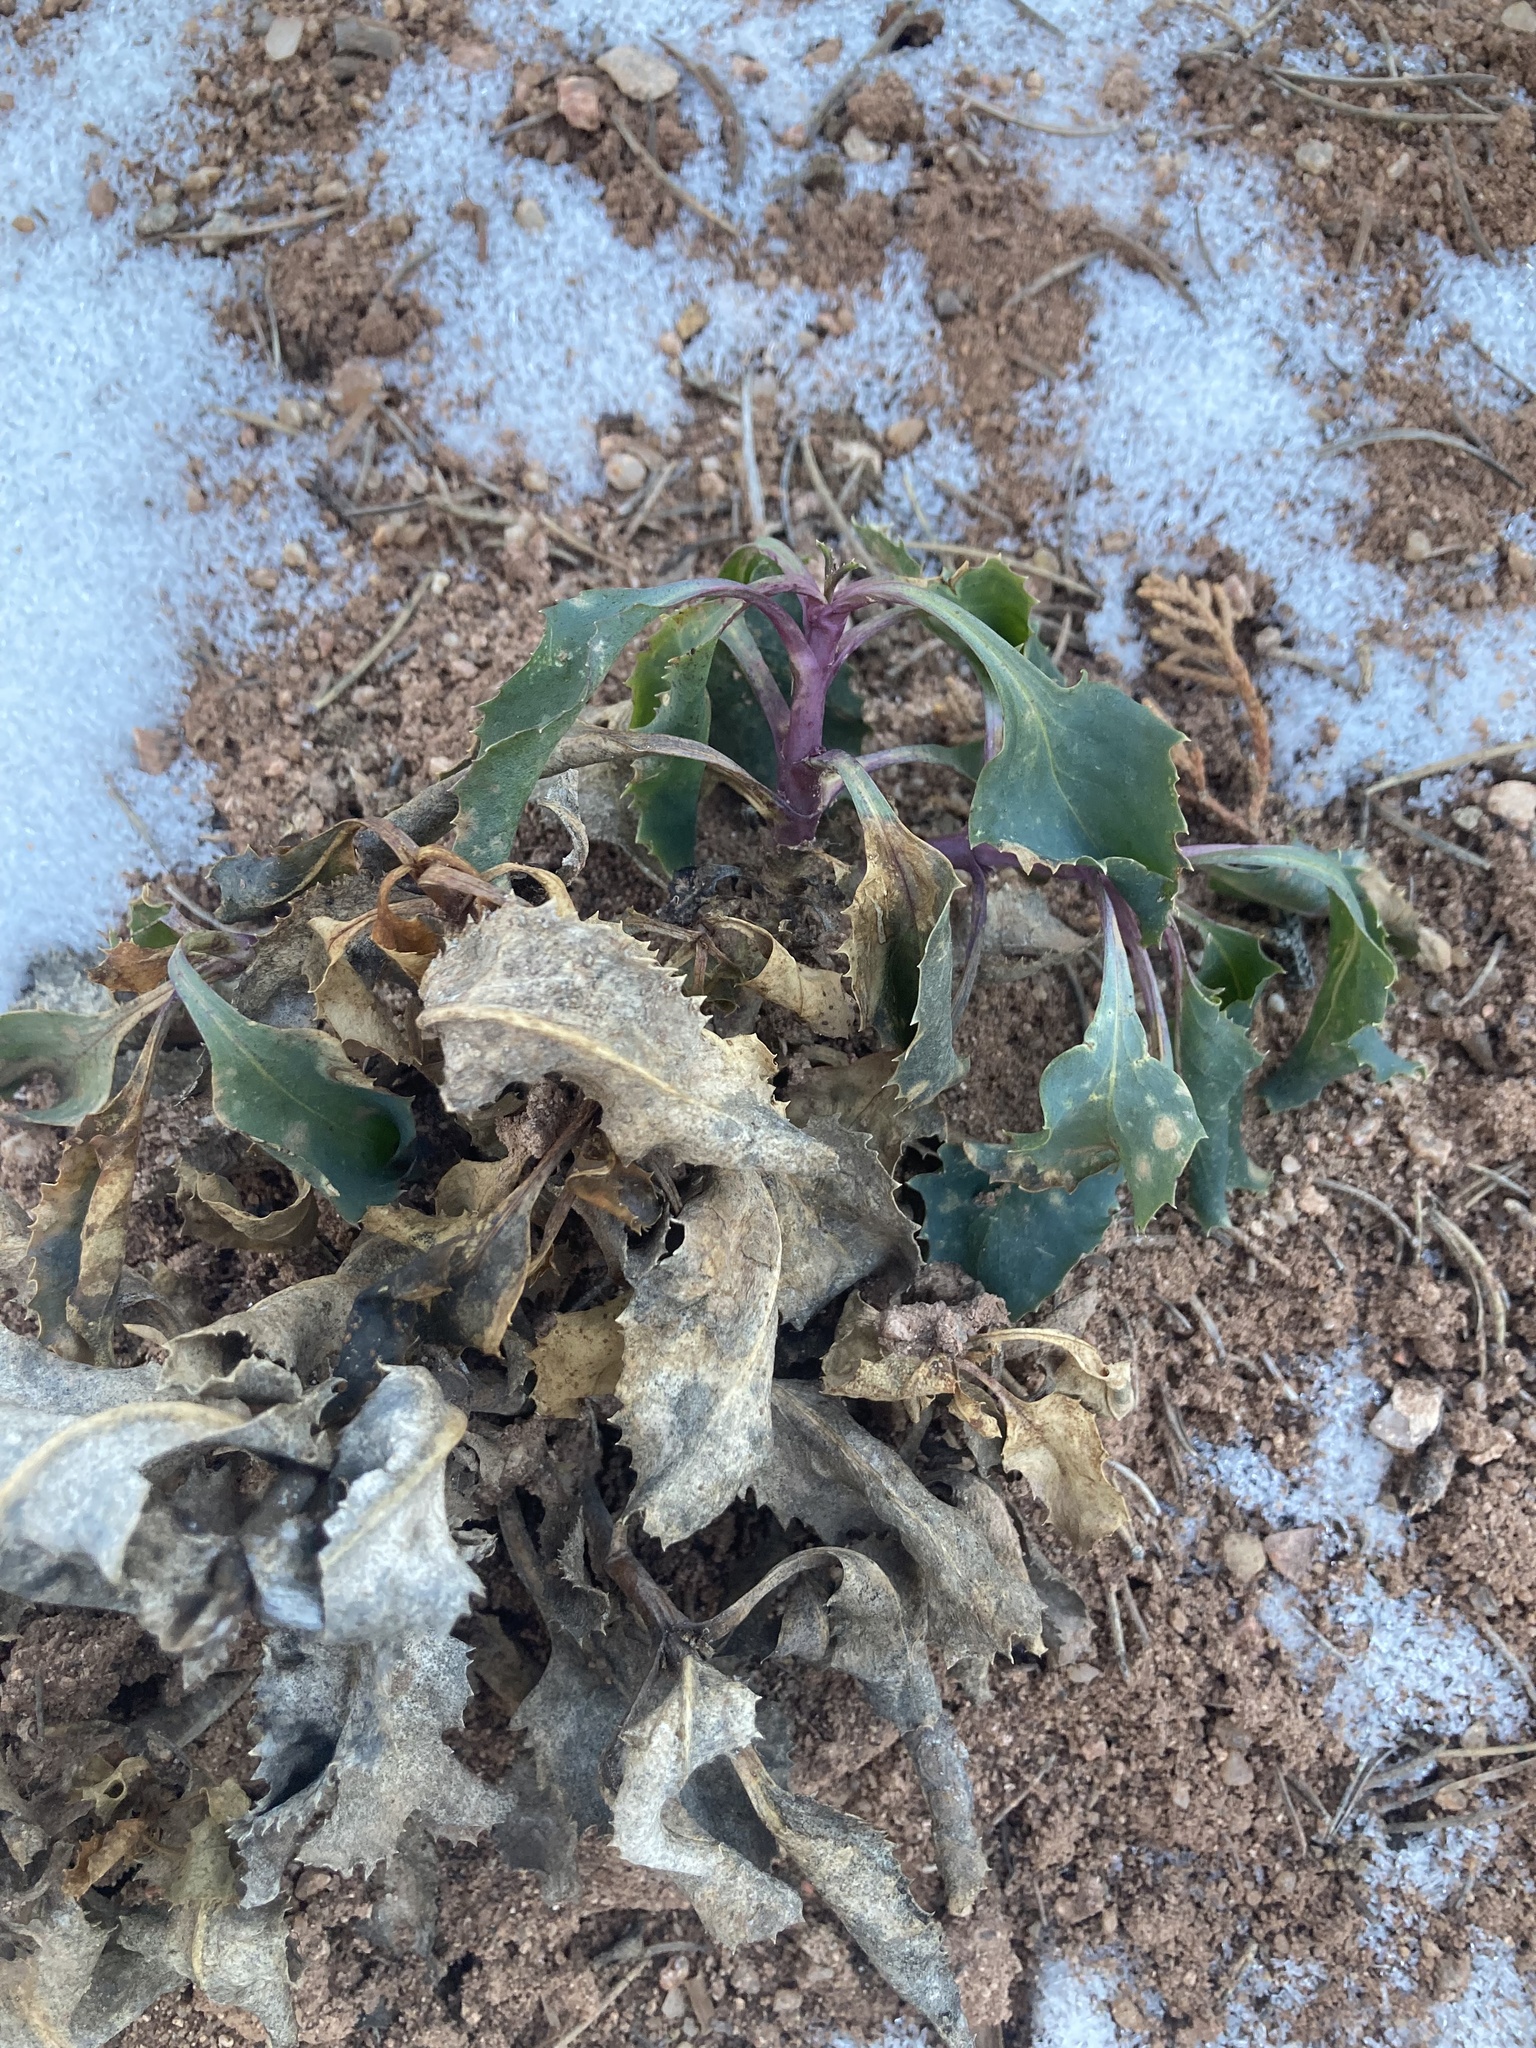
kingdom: Plantae
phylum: Tracheophyta
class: Magnoliopsida
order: Lamiales
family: Plantaginaceae
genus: Penstemon
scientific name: Penstemon palmeri
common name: Palmer penstemon
